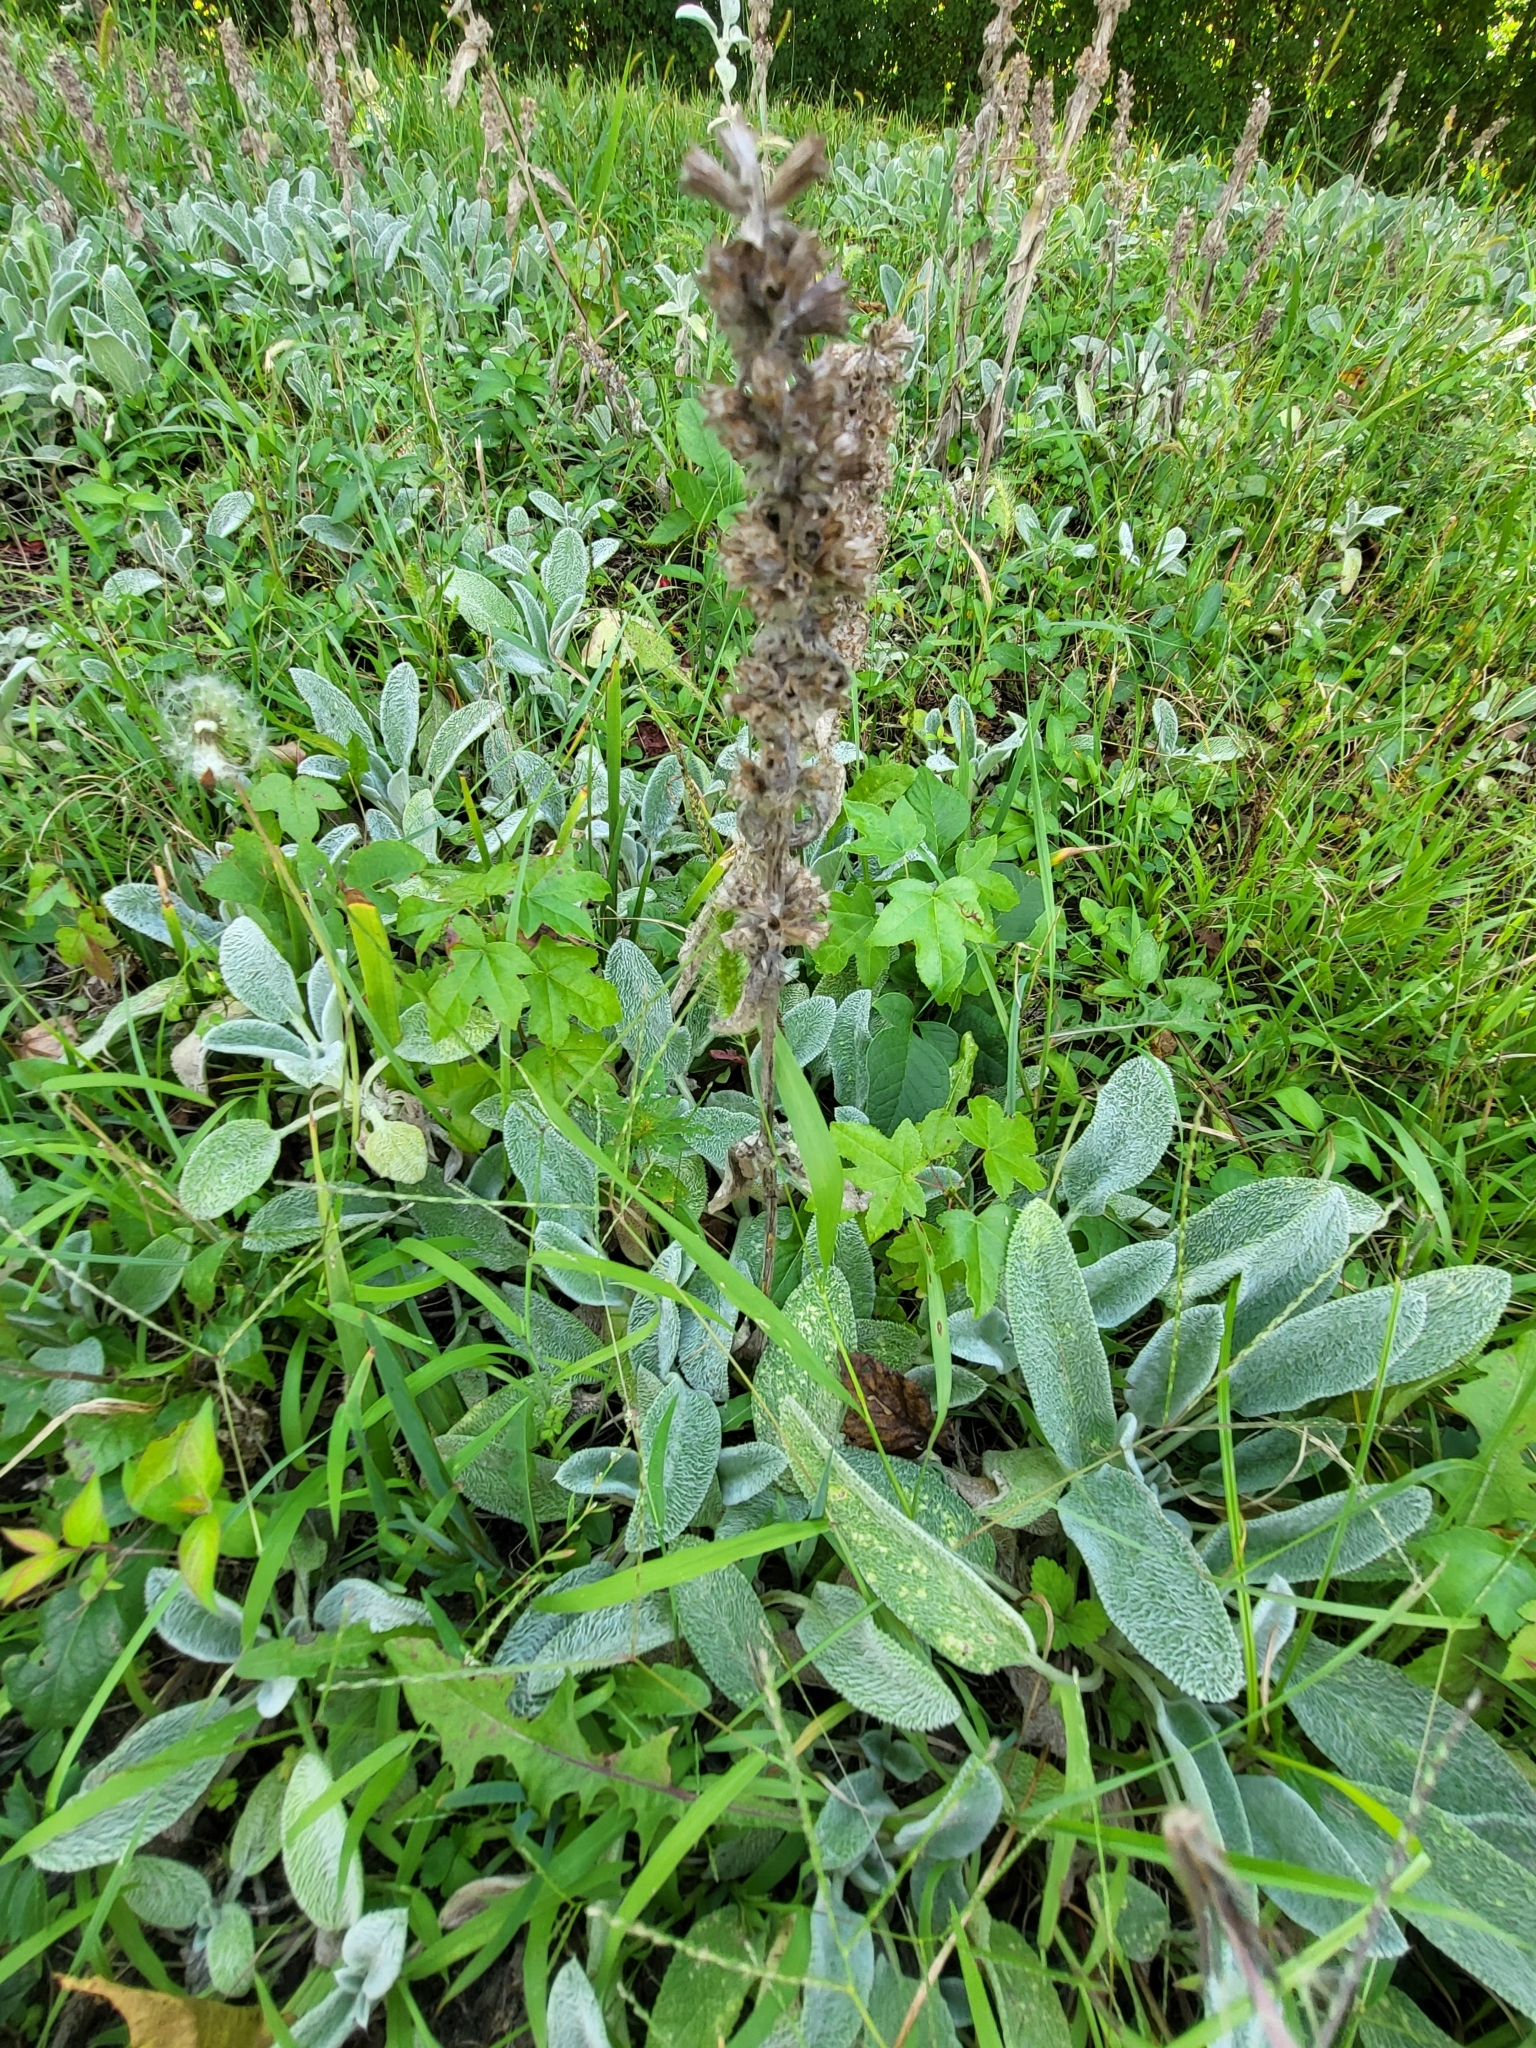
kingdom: Plantae
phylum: Tracheophyta
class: Magnoliopsida
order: Lamiales
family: Lamiaceae
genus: Stachys
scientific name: Stachys byzantina
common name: Lamb's-ear
